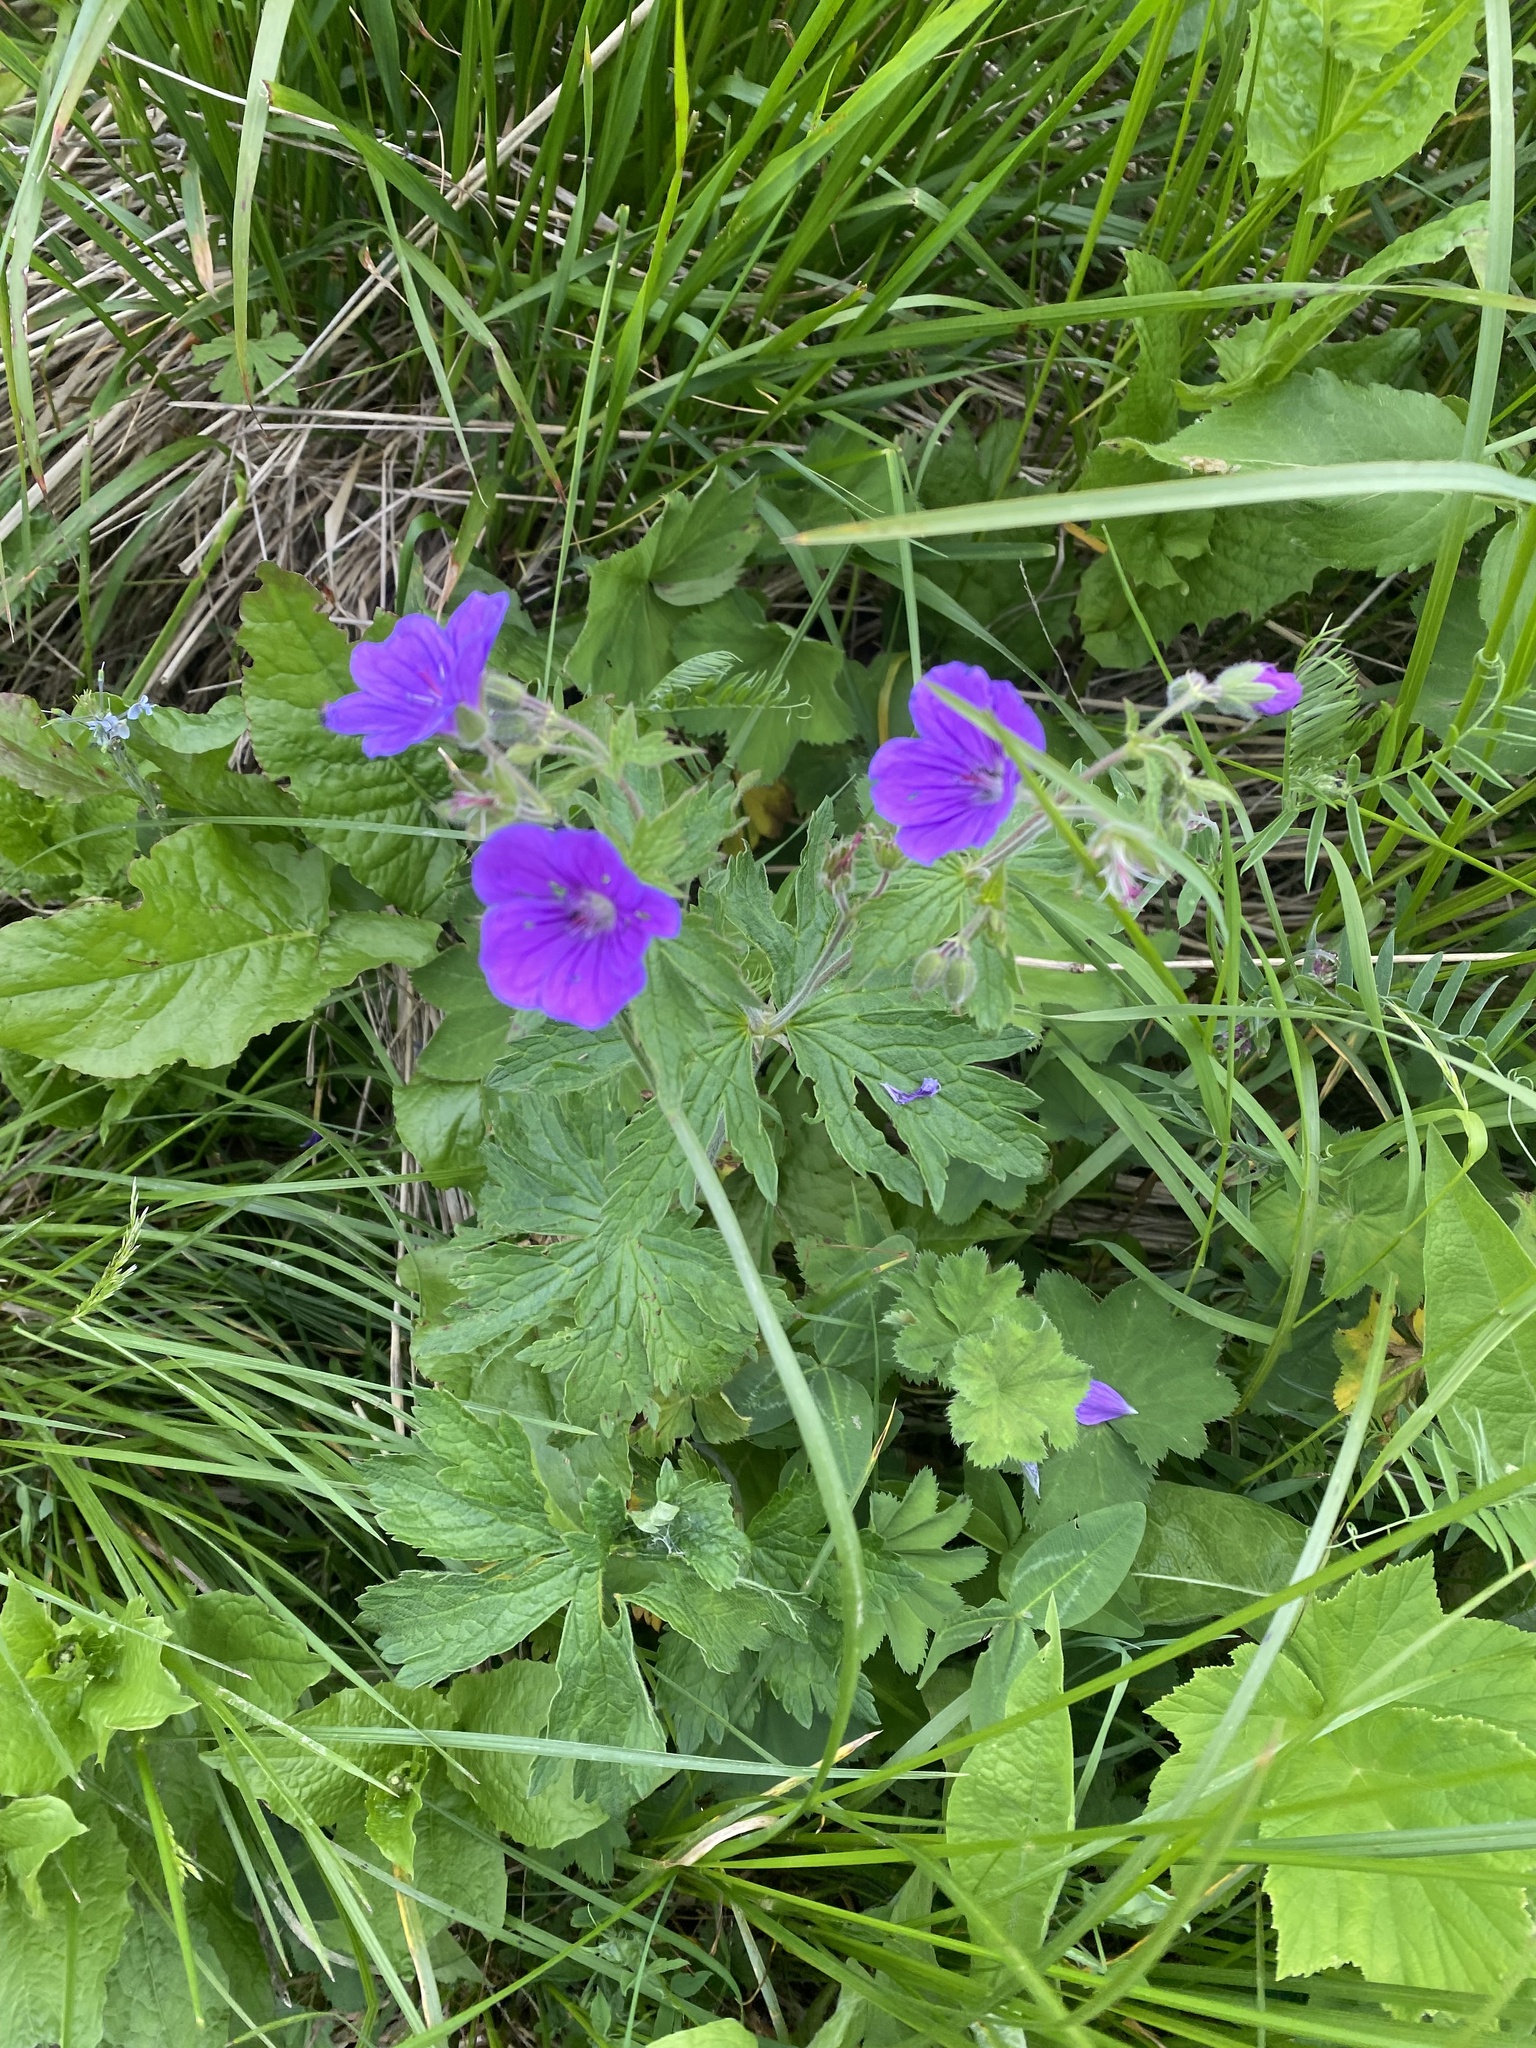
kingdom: Plantae
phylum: Tracheophyta
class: Magnoliopsida
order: Geraniales
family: Geraniaceae
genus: Geranium
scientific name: Geranium sylvaticum
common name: Wood crane's-bill
